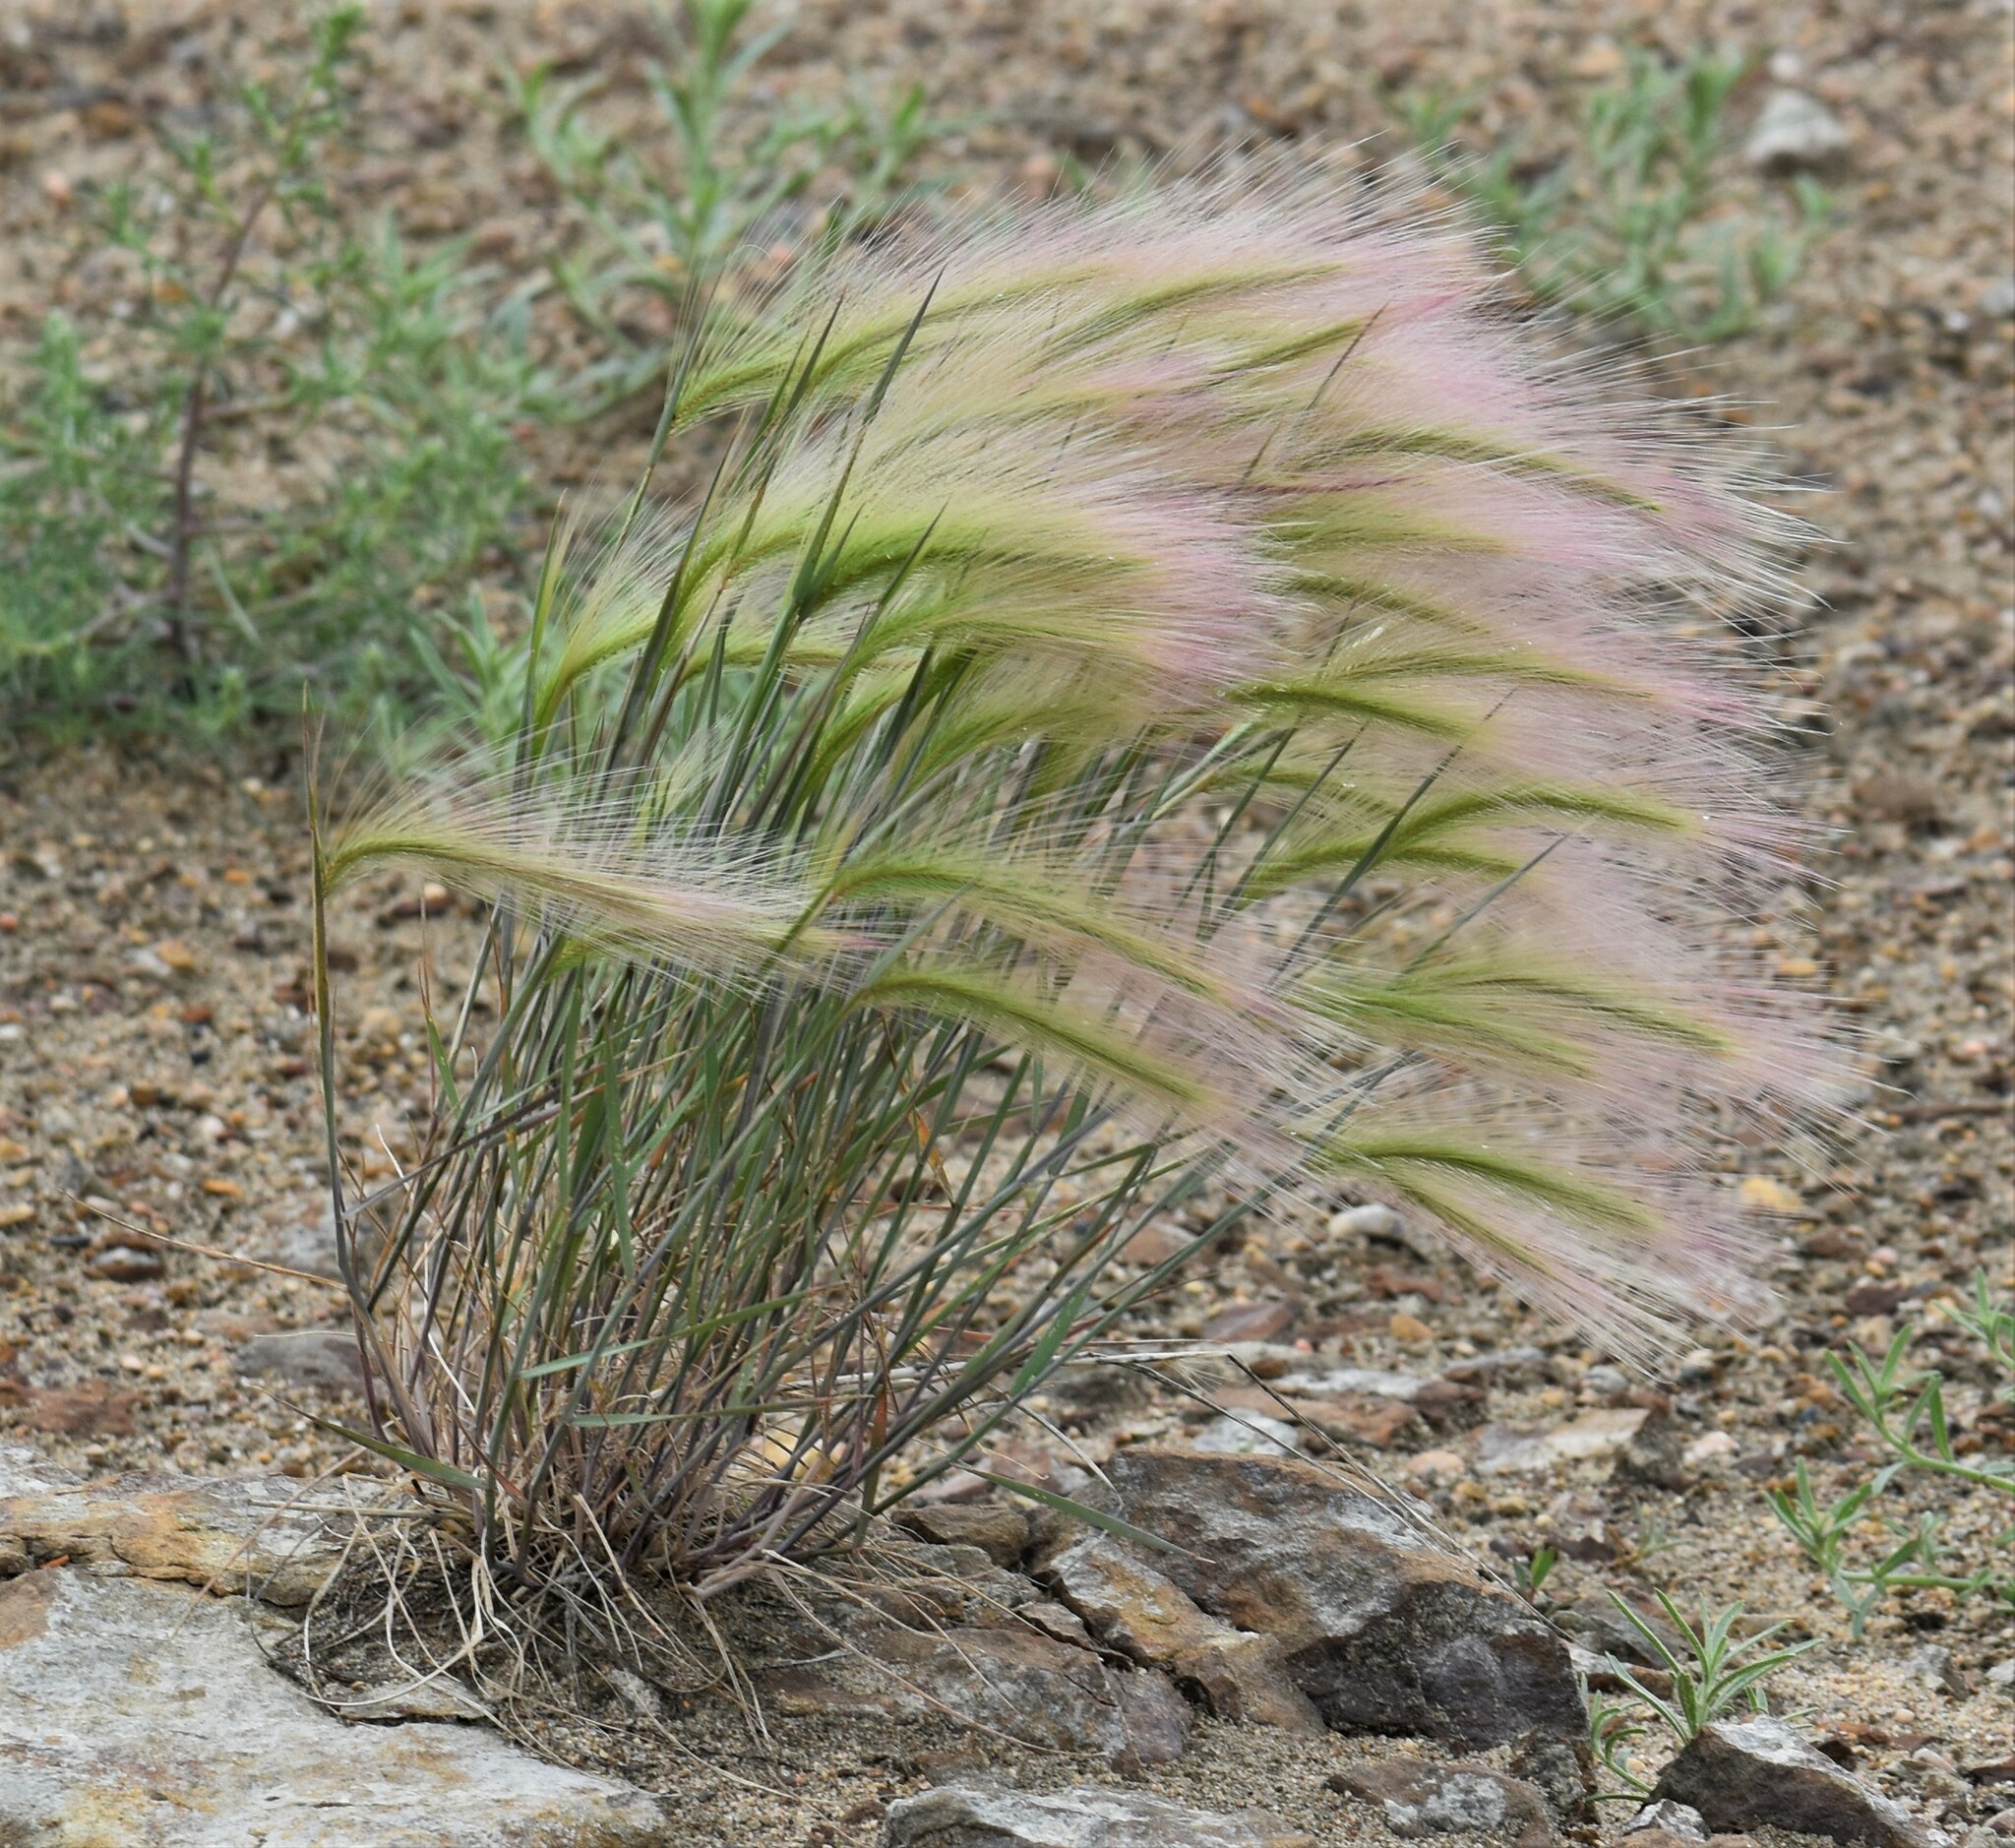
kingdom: Plantae
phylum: Tracheophyta
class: Liliopsida
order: Poales
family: Poaceae
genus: Hordeum
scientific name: Hordeum jubatum
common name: Foxtail barley
